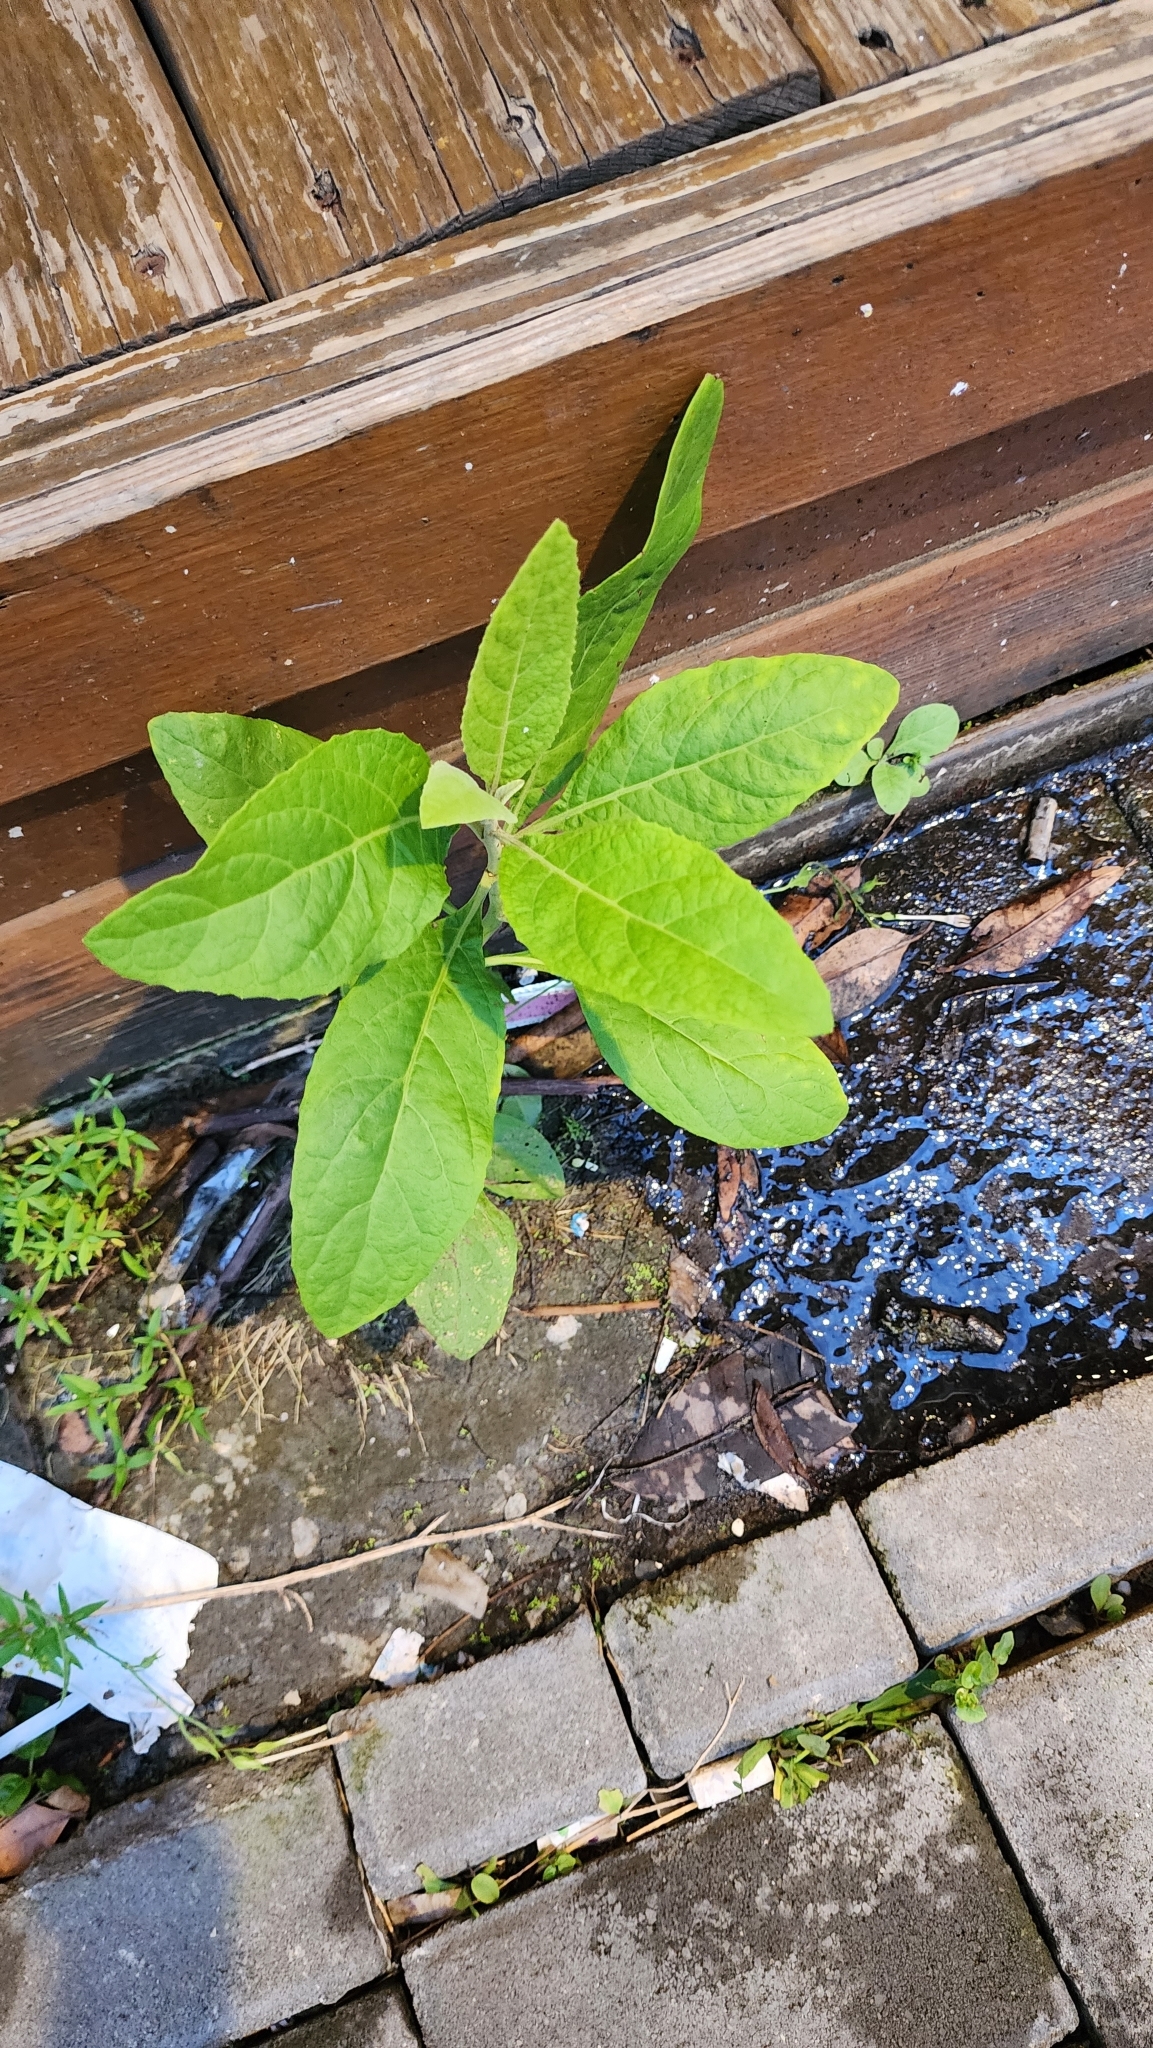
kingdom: Plantae
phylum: Tracheophyta
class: Magnoliopsida
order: Asterales
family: Asteraceae
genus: Pluchea
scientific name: Pluchea carolinensis
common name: Marsh fleabane
